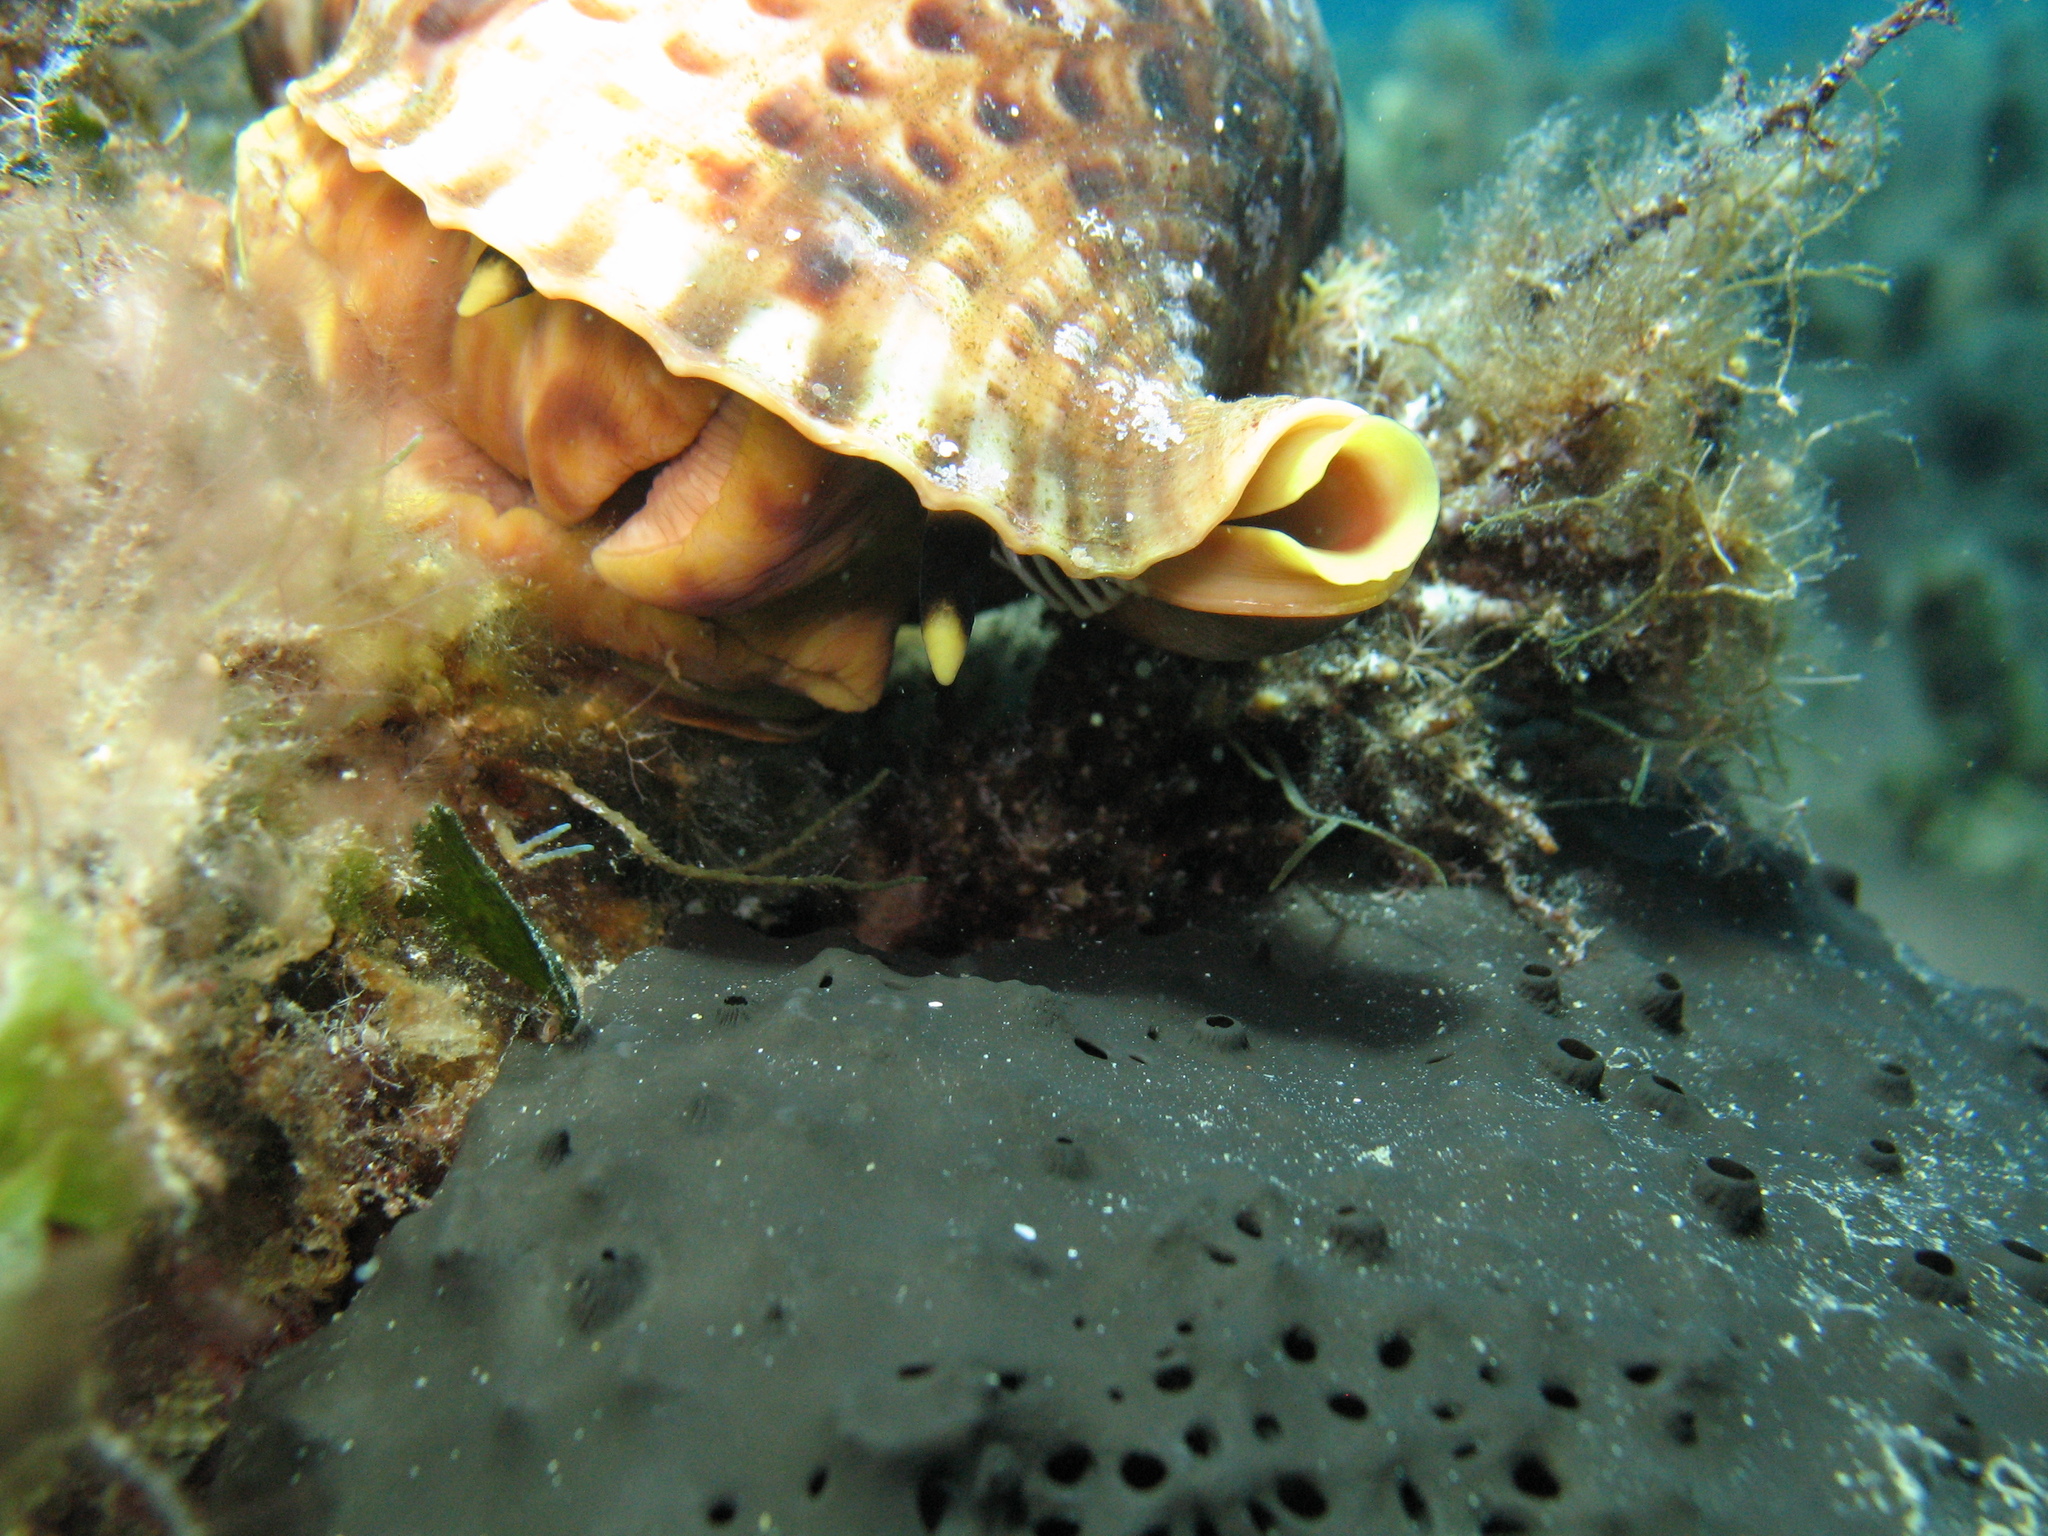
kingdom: Animalia
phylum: Mollusca
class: Gastropoda
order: Littorinimorpha
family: Charoniidae
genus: Charonia
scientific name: Charonia variegata
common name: Atlantic triton
